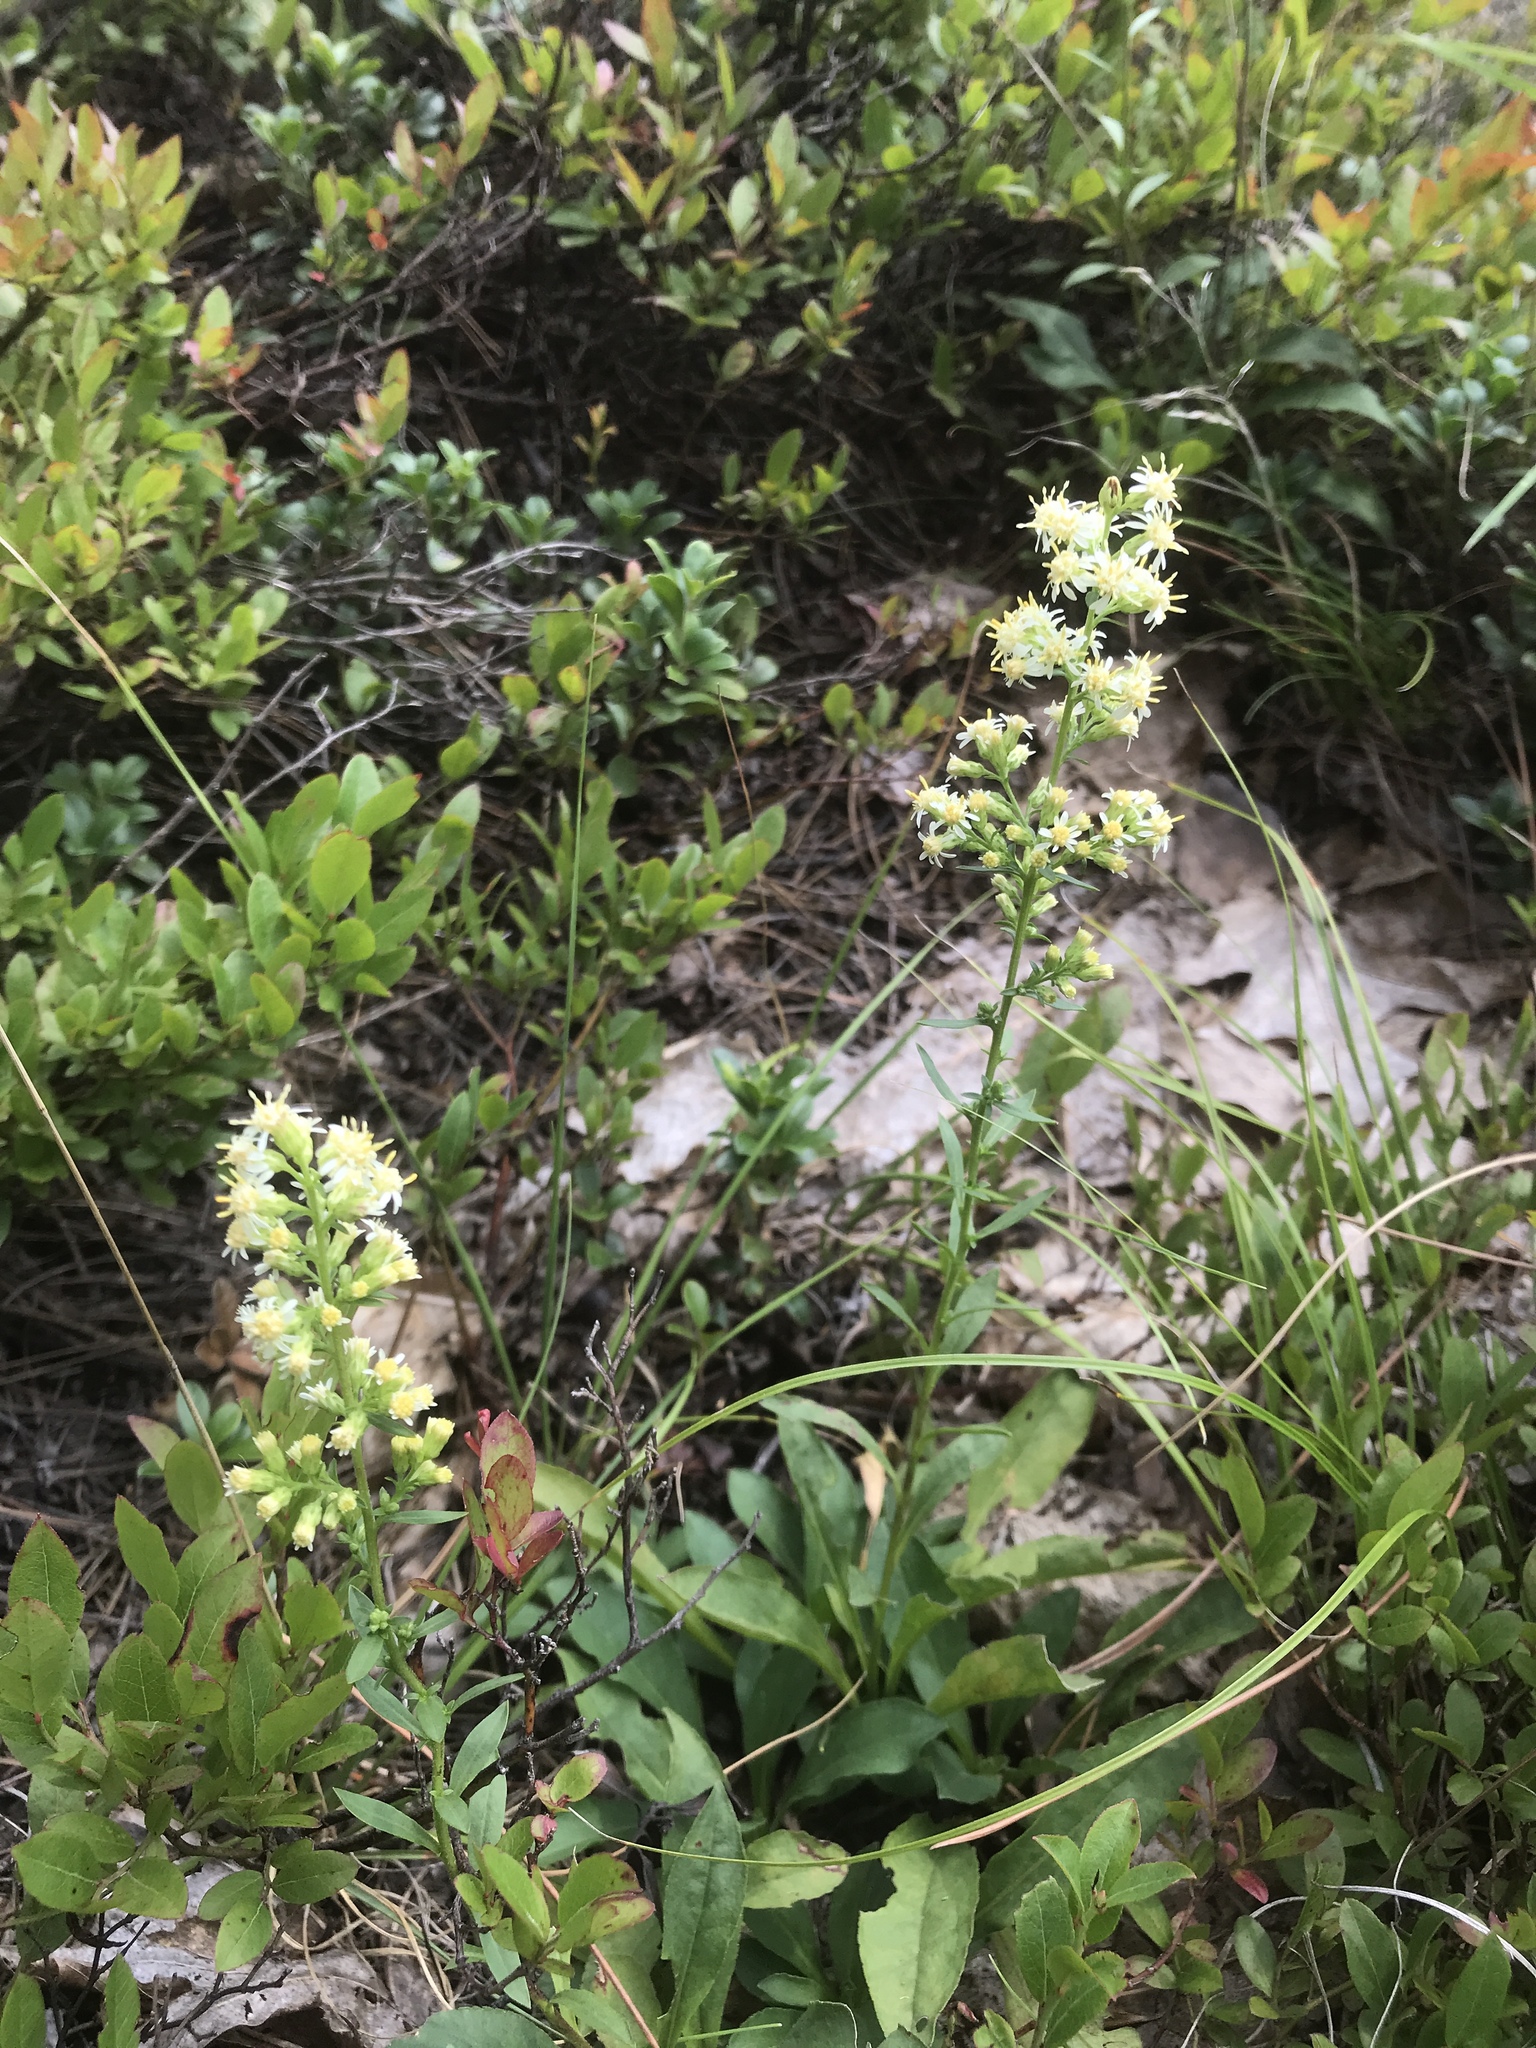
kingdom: Plantae
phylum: Tracheophyta
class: Magnoliopsida
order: Asterales
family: Asteraceae
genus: Solidago
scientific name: Solidago bicolor
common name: Silverrod
